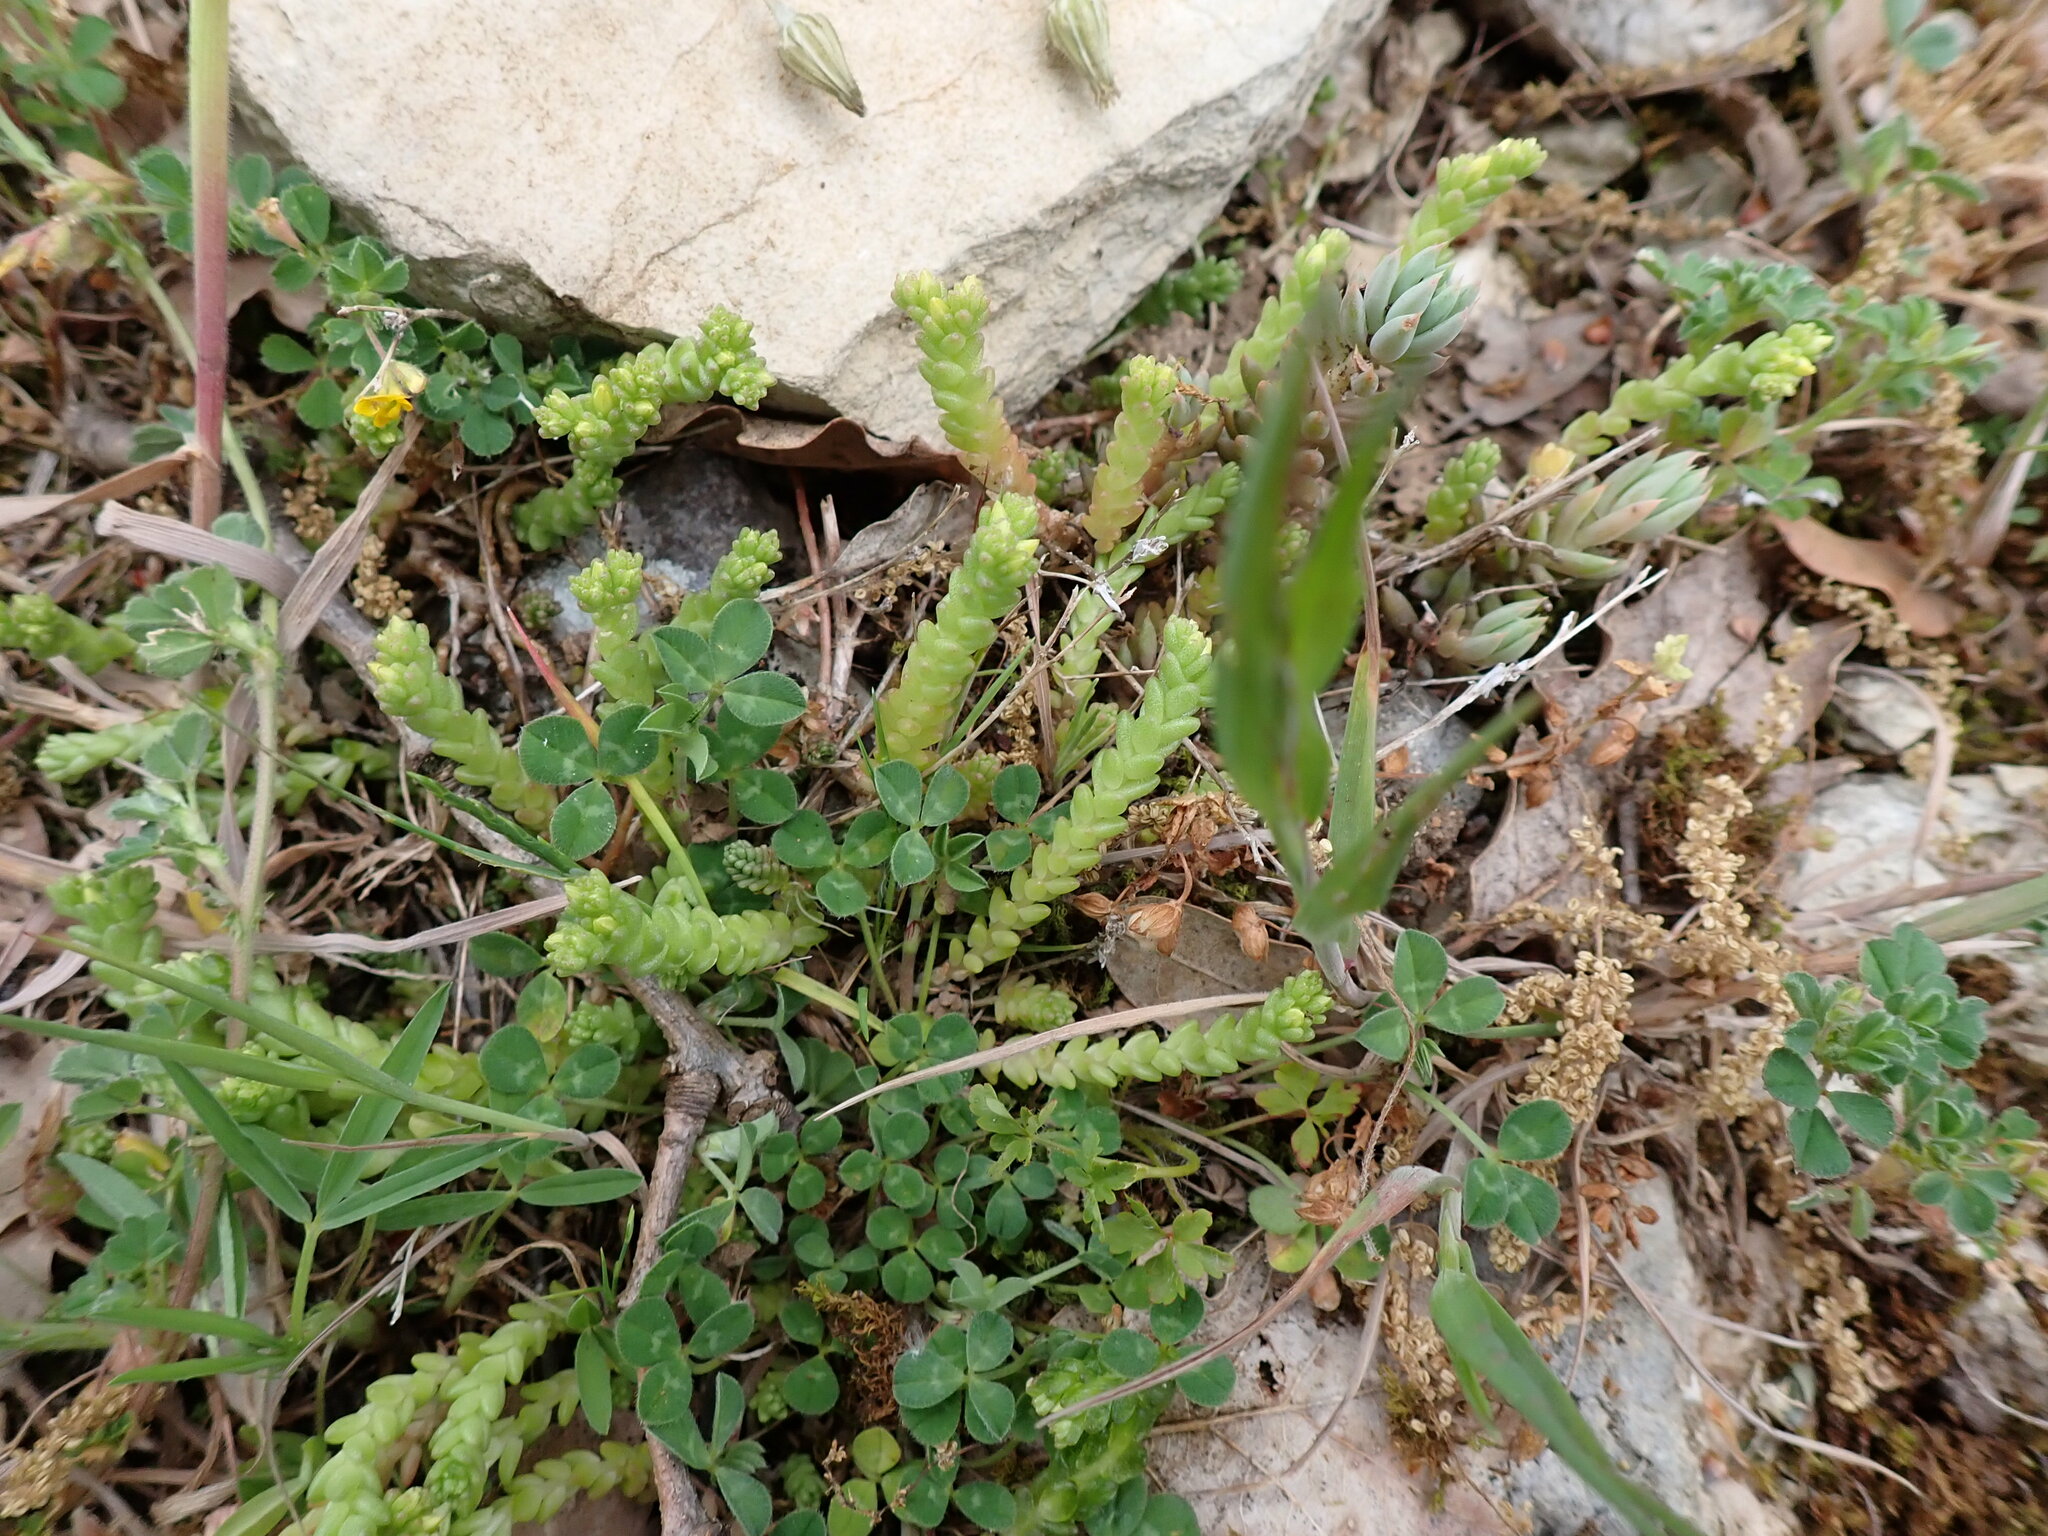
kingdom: Plantae
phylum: Tracheophyta
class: Magnoliopsida
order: Saxifragales
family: Crassulaceae
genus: Sedum
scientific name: Sedum acre
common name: Biting stonecrop
